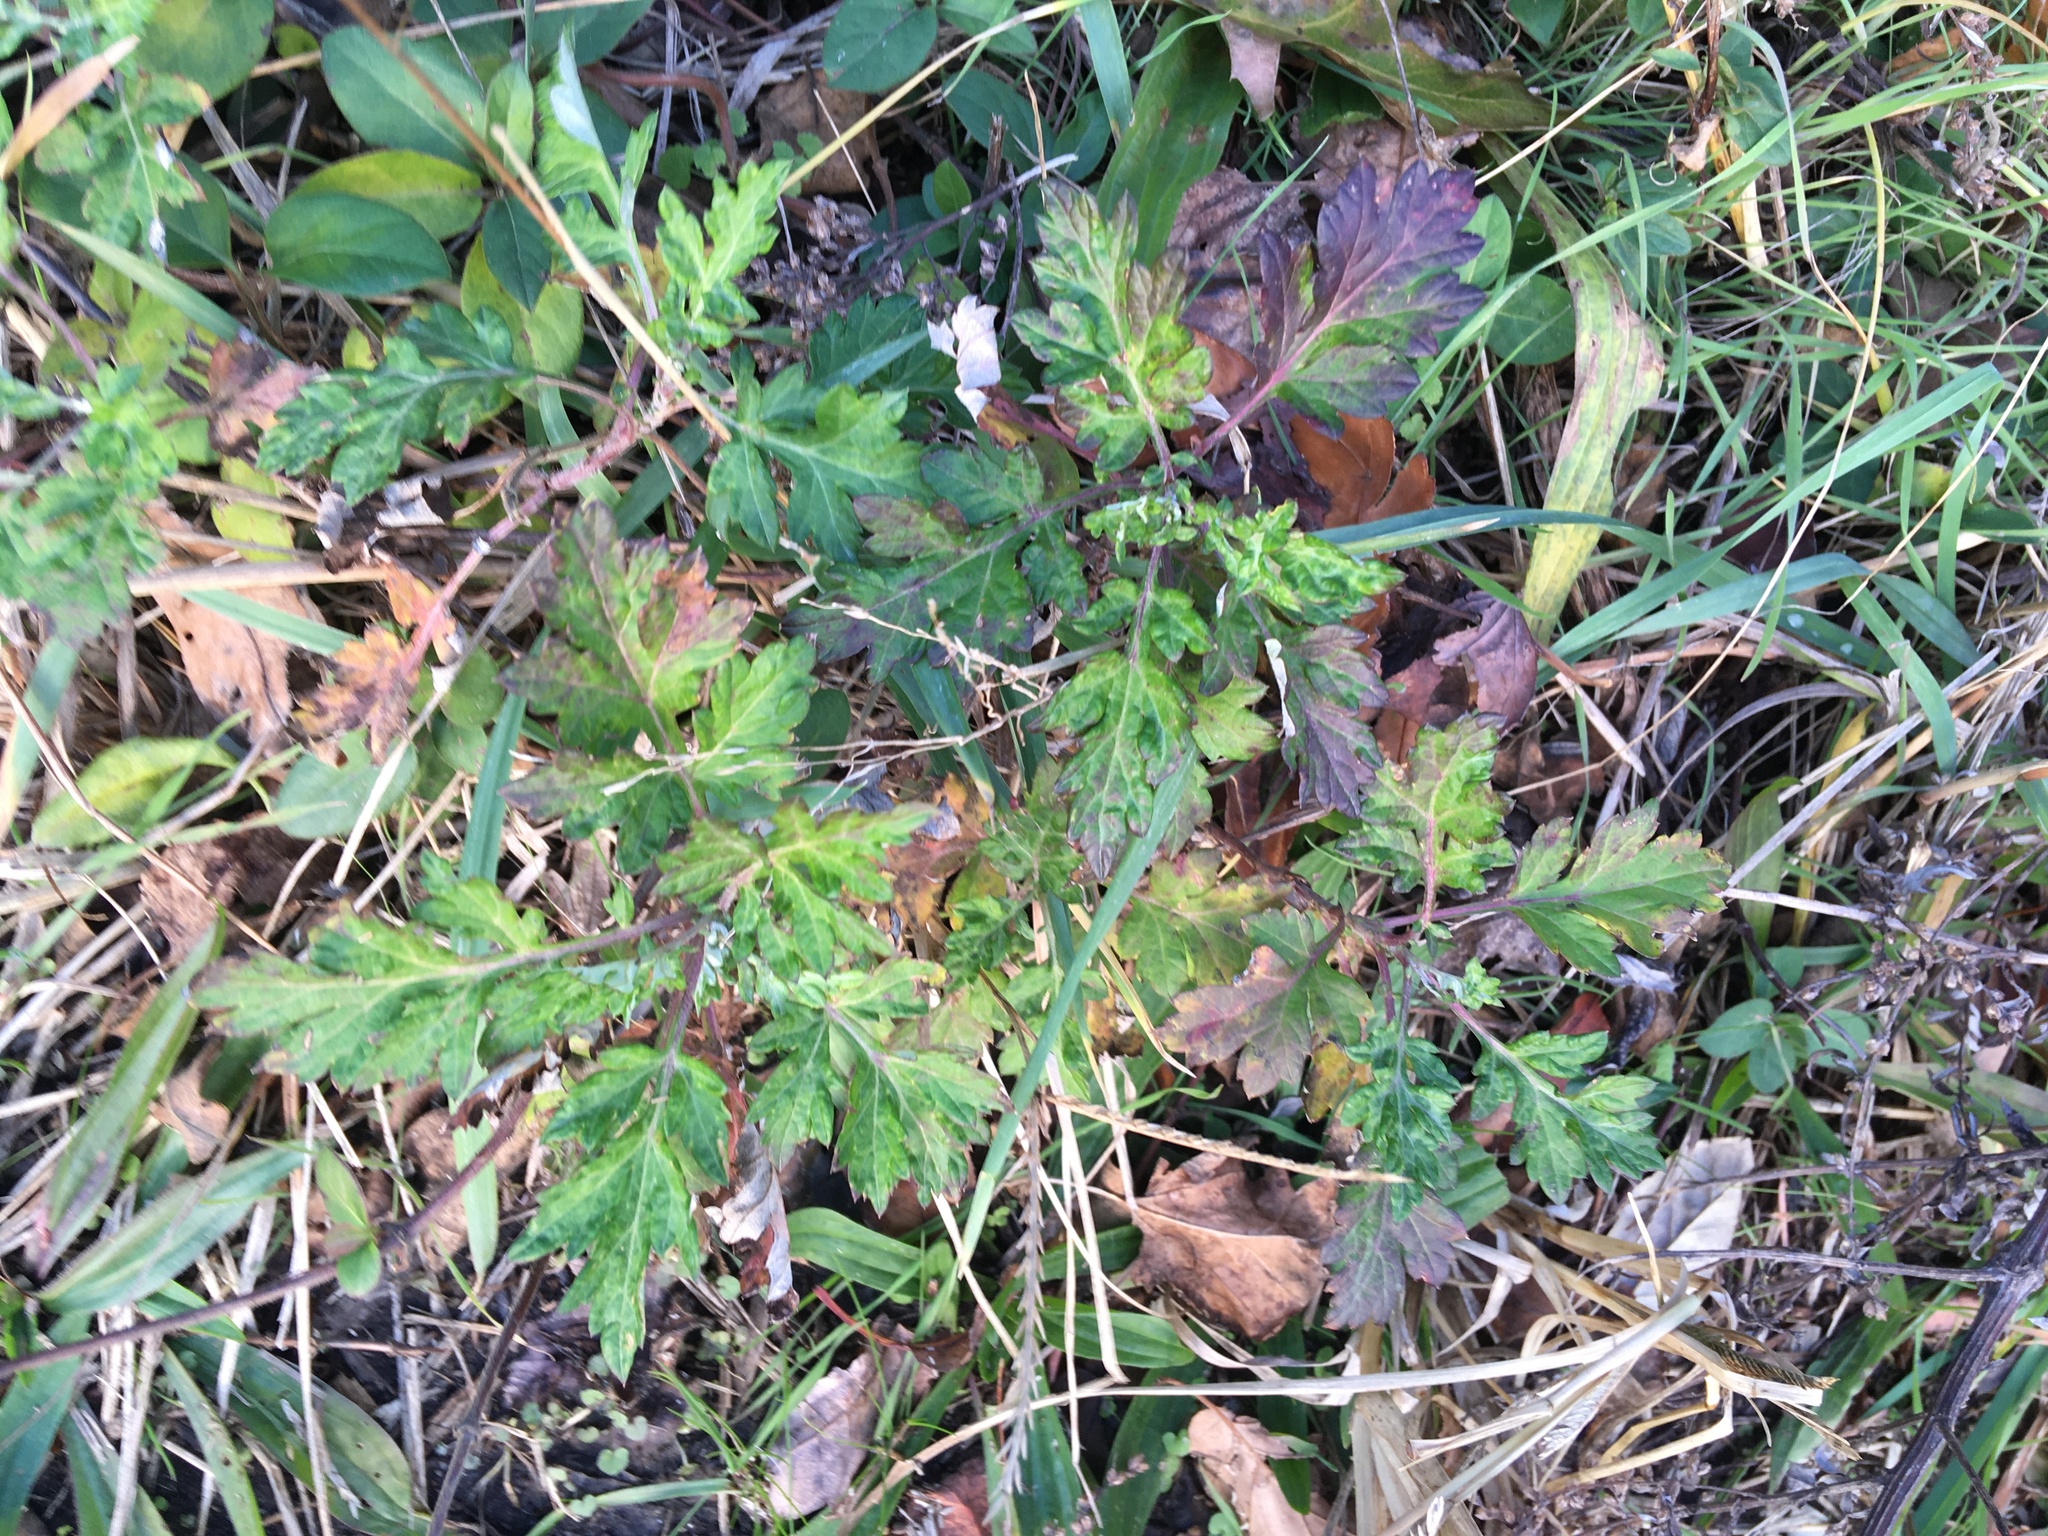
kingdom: Plantae
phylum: Tracheophyta
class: Magnoliopsida
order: Asterales
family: Asteraceae
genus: Artemisia
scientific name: Artemisia vulgaris
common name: Mugwort
